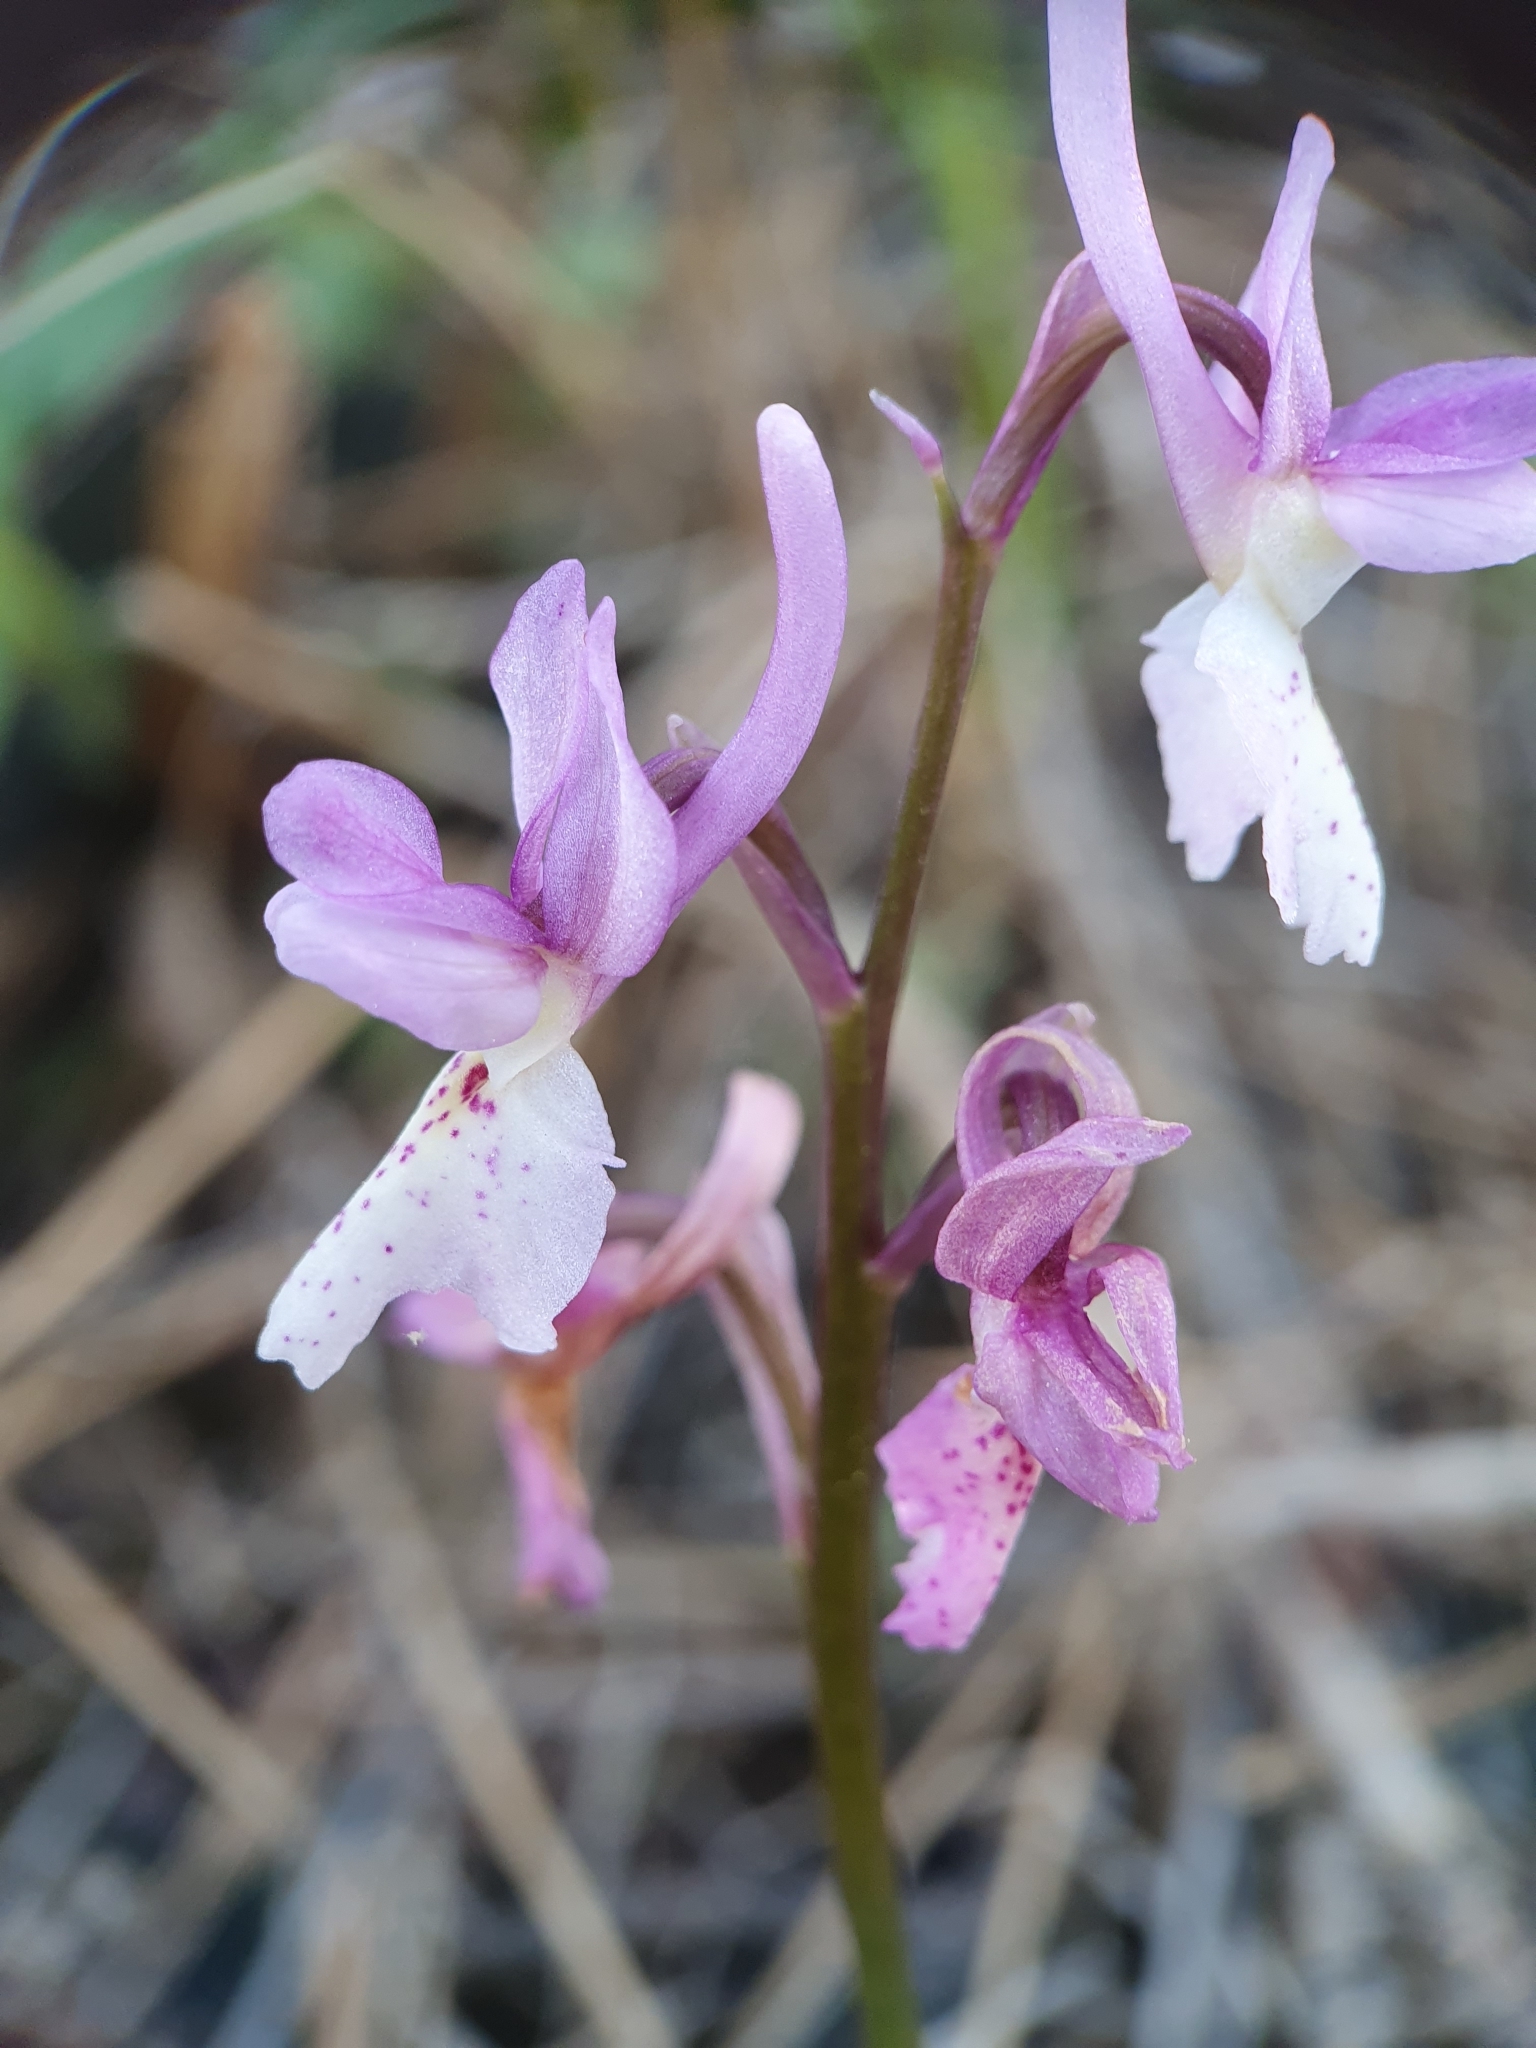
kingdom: Plantae
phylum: Tracheophyta
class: Liliopsida
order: Asparagales
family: Orchidaceae
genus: Orchis
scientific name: Orchis laeta
